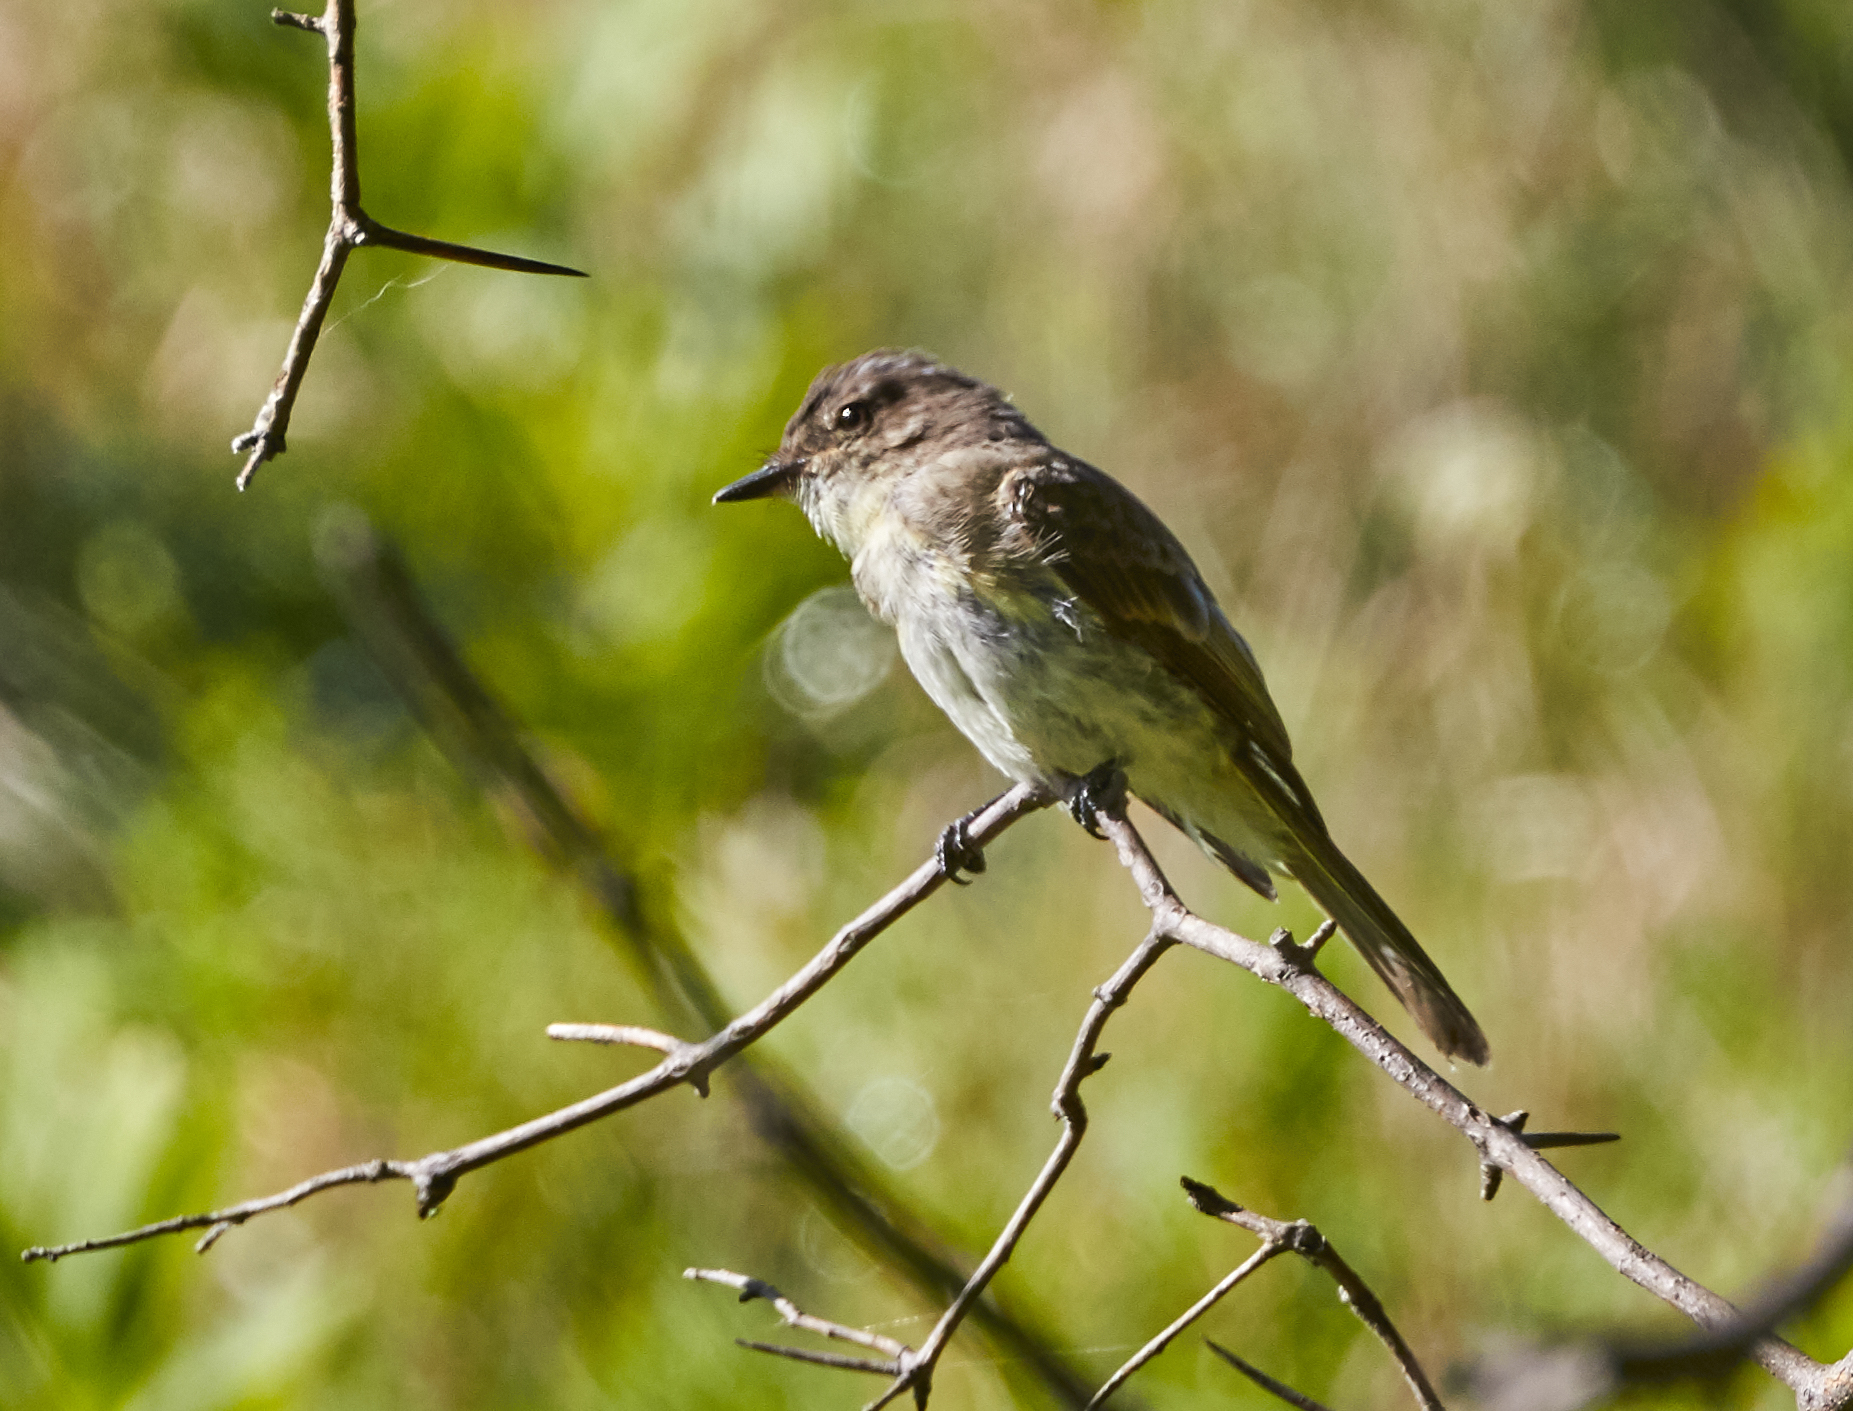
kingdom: Animalia
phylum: Chordata
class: Aves
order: Passeriformes
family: Tyrannidae
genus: Sayornis
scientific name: Sayornis phoebe
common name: Eastern phoebe
